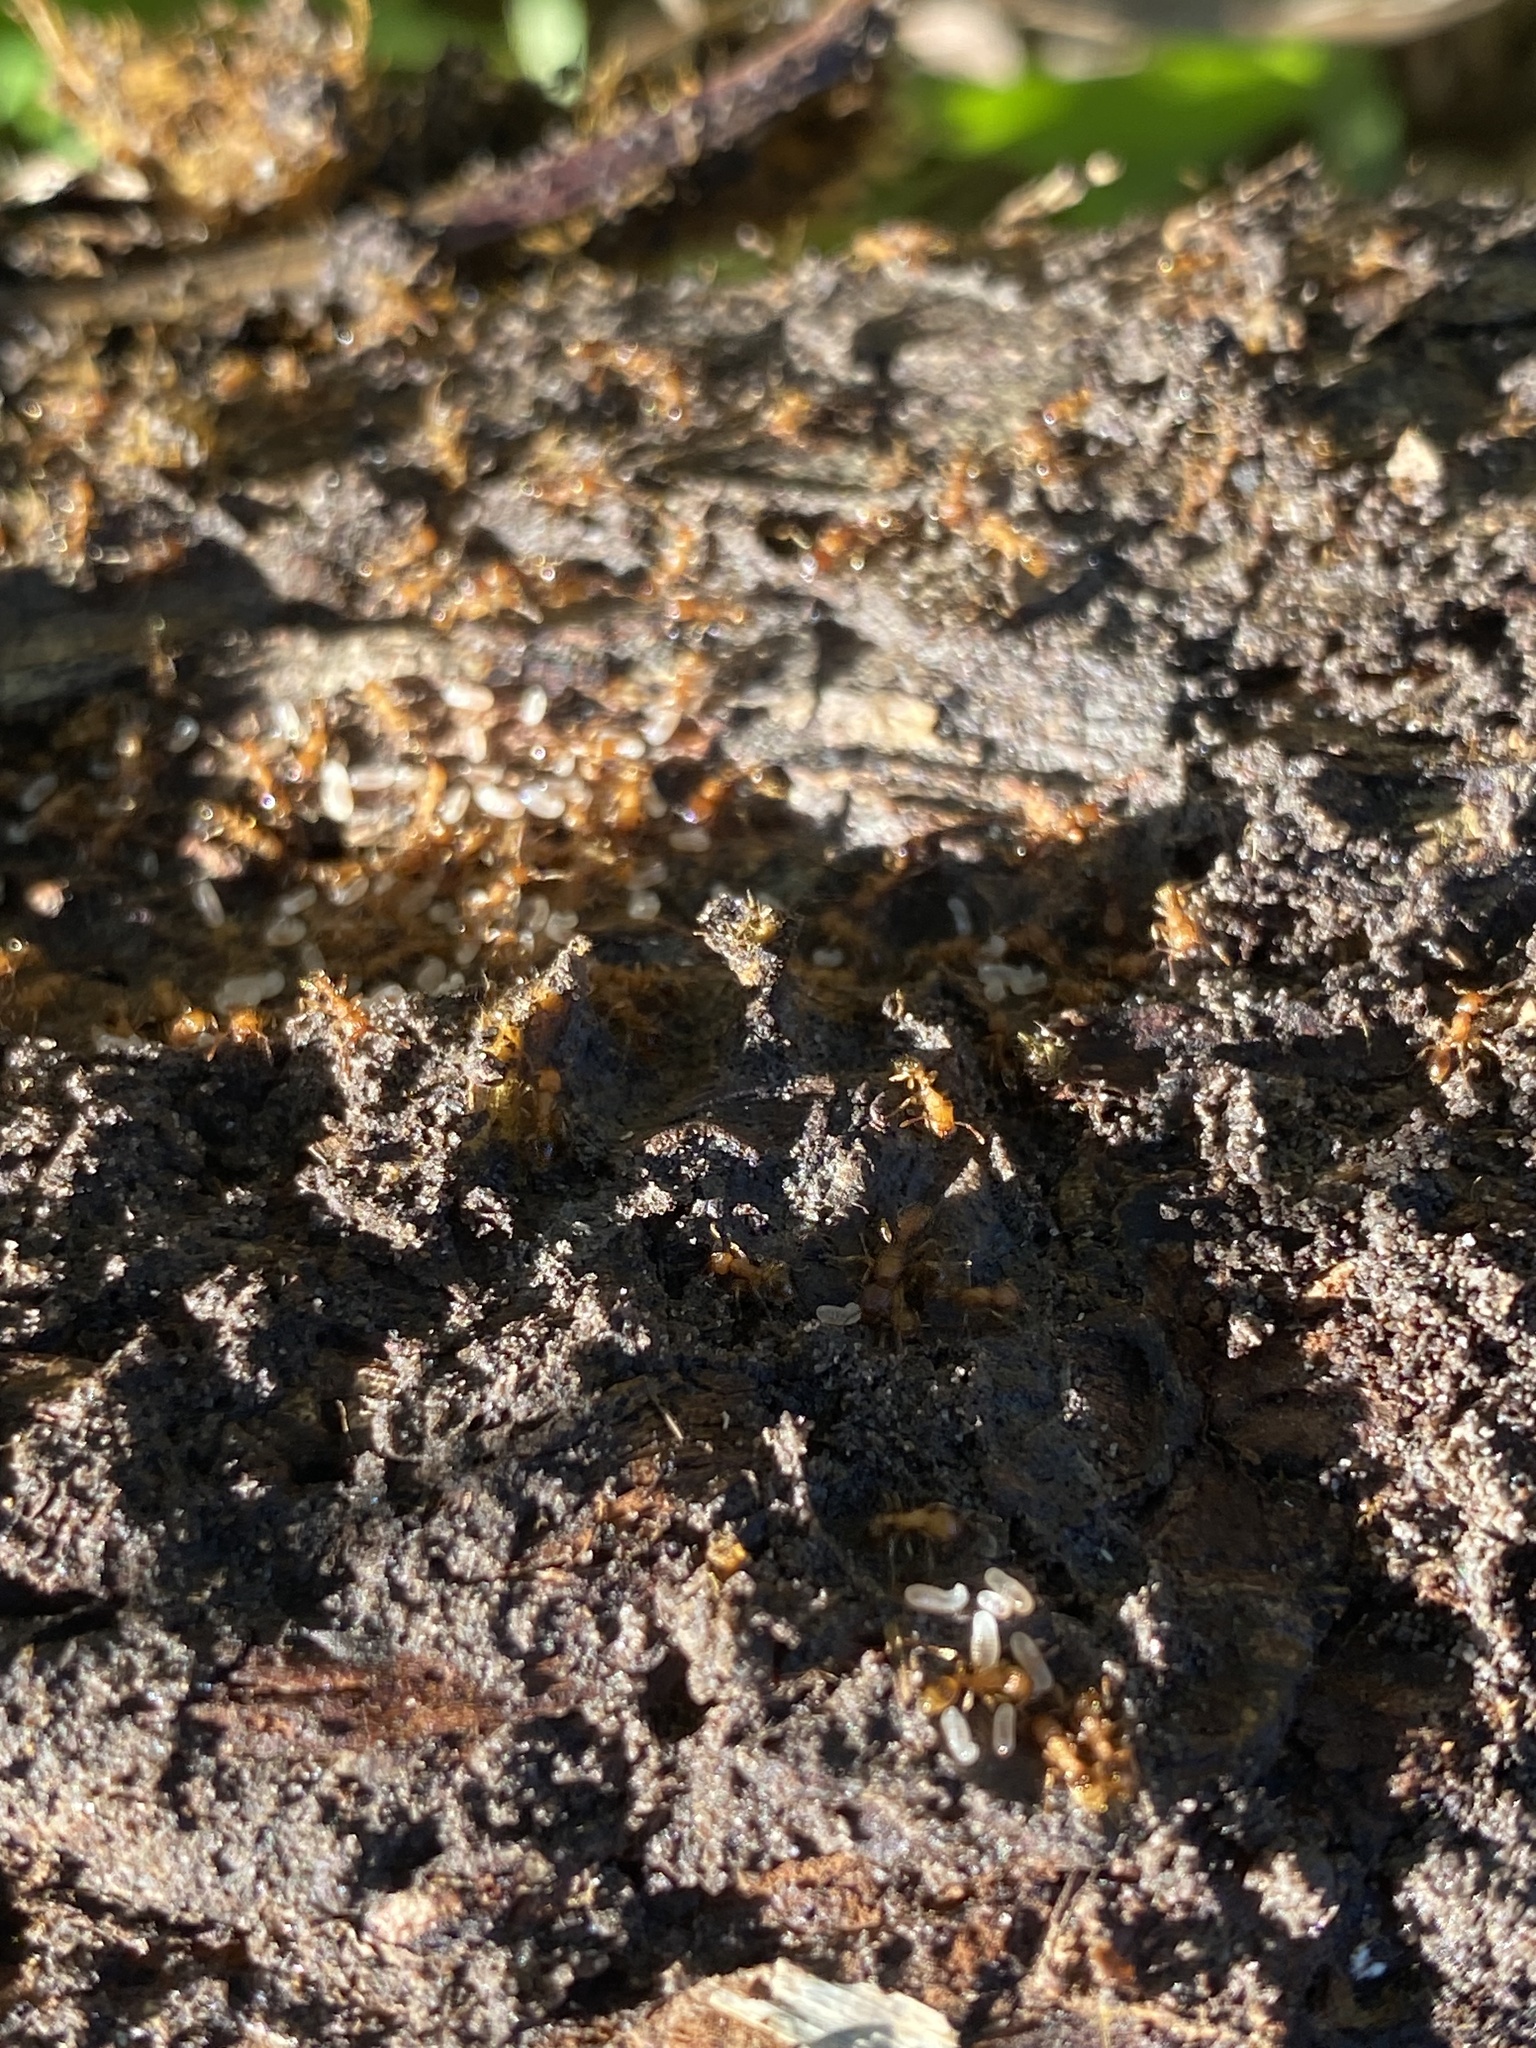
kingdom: Animalia
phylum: Arthropoda
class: Insecta
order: Hymenoptera
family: Formicidae
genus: Tetramorium
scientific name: Tetramorium bicarinatum
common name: Guinea ant
